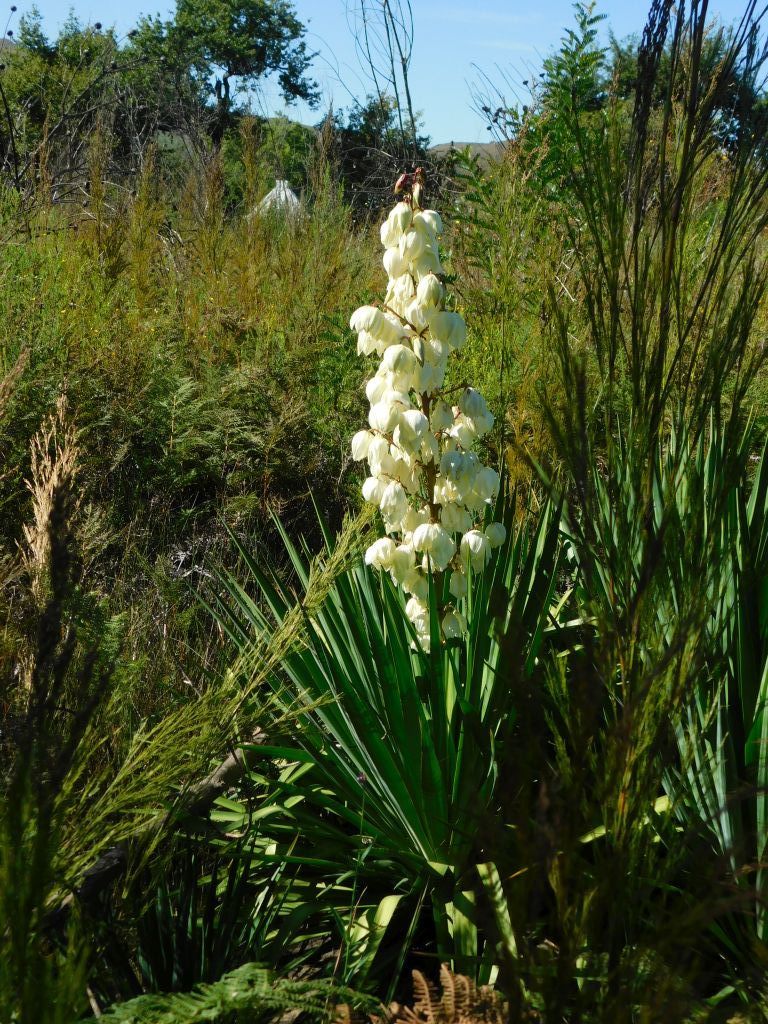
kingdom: Plantae
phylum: Tracheophyta
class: Liliopsida
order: Asparagales
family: Asparagaceae
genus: Yucca
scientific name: Yucca gloriosa
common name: Spanish-dagger
